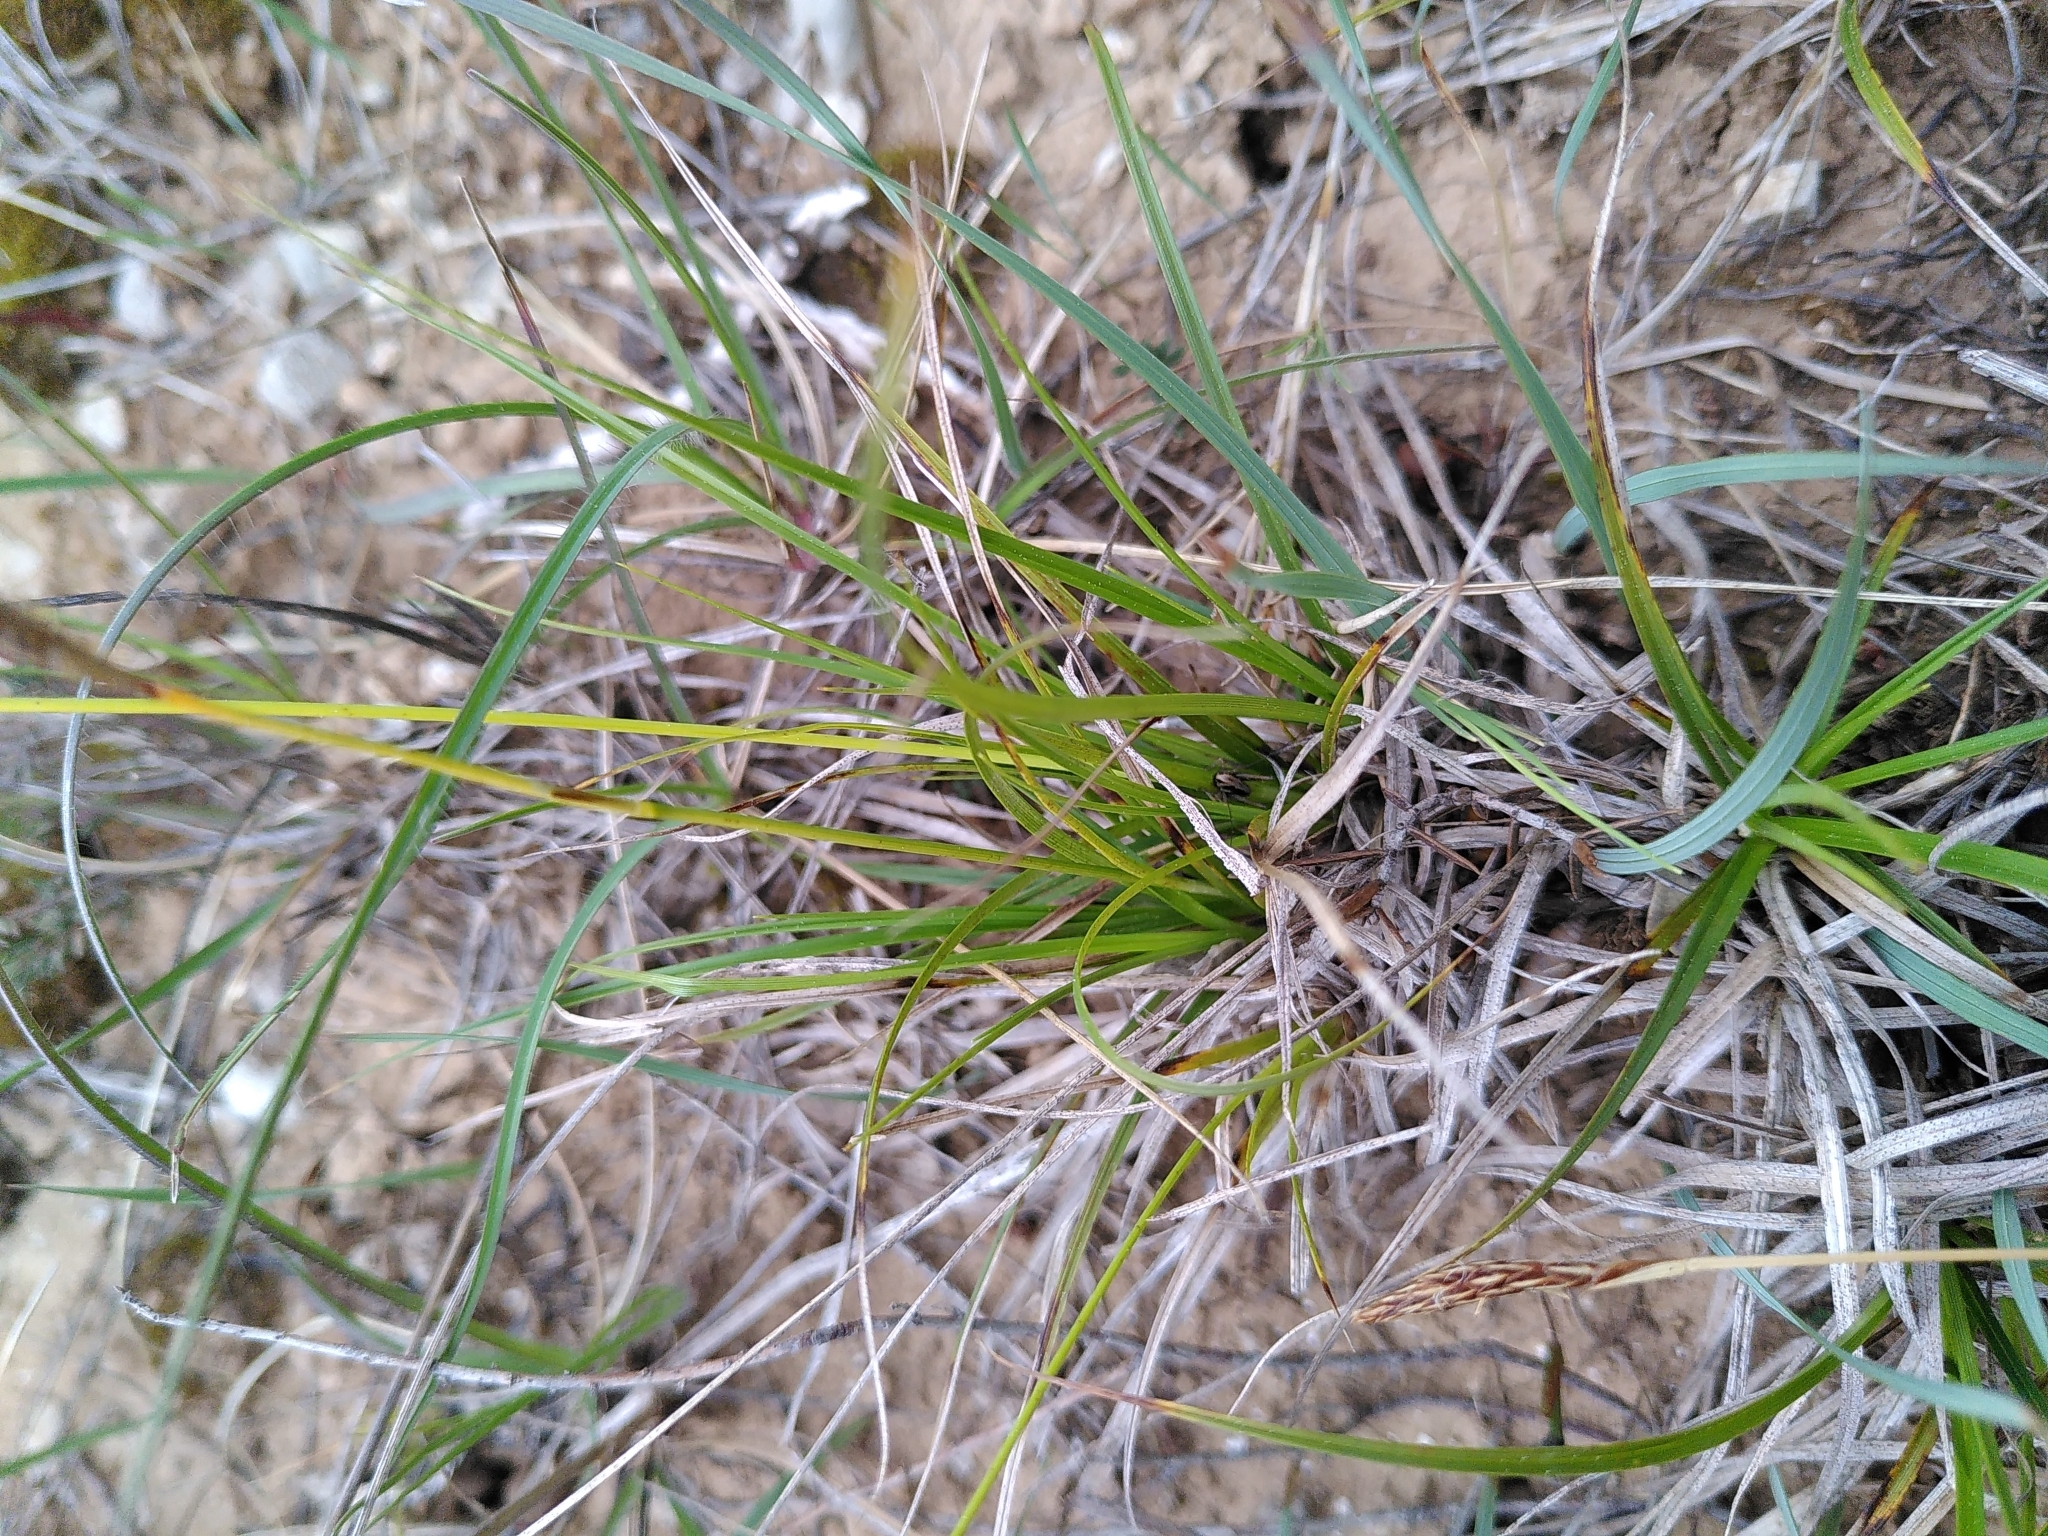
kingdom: Plantae
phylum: Tracheophyta
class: Liliopsida
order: Poales
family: Cyperaceae
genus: Carex
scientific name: Carex halleriana
